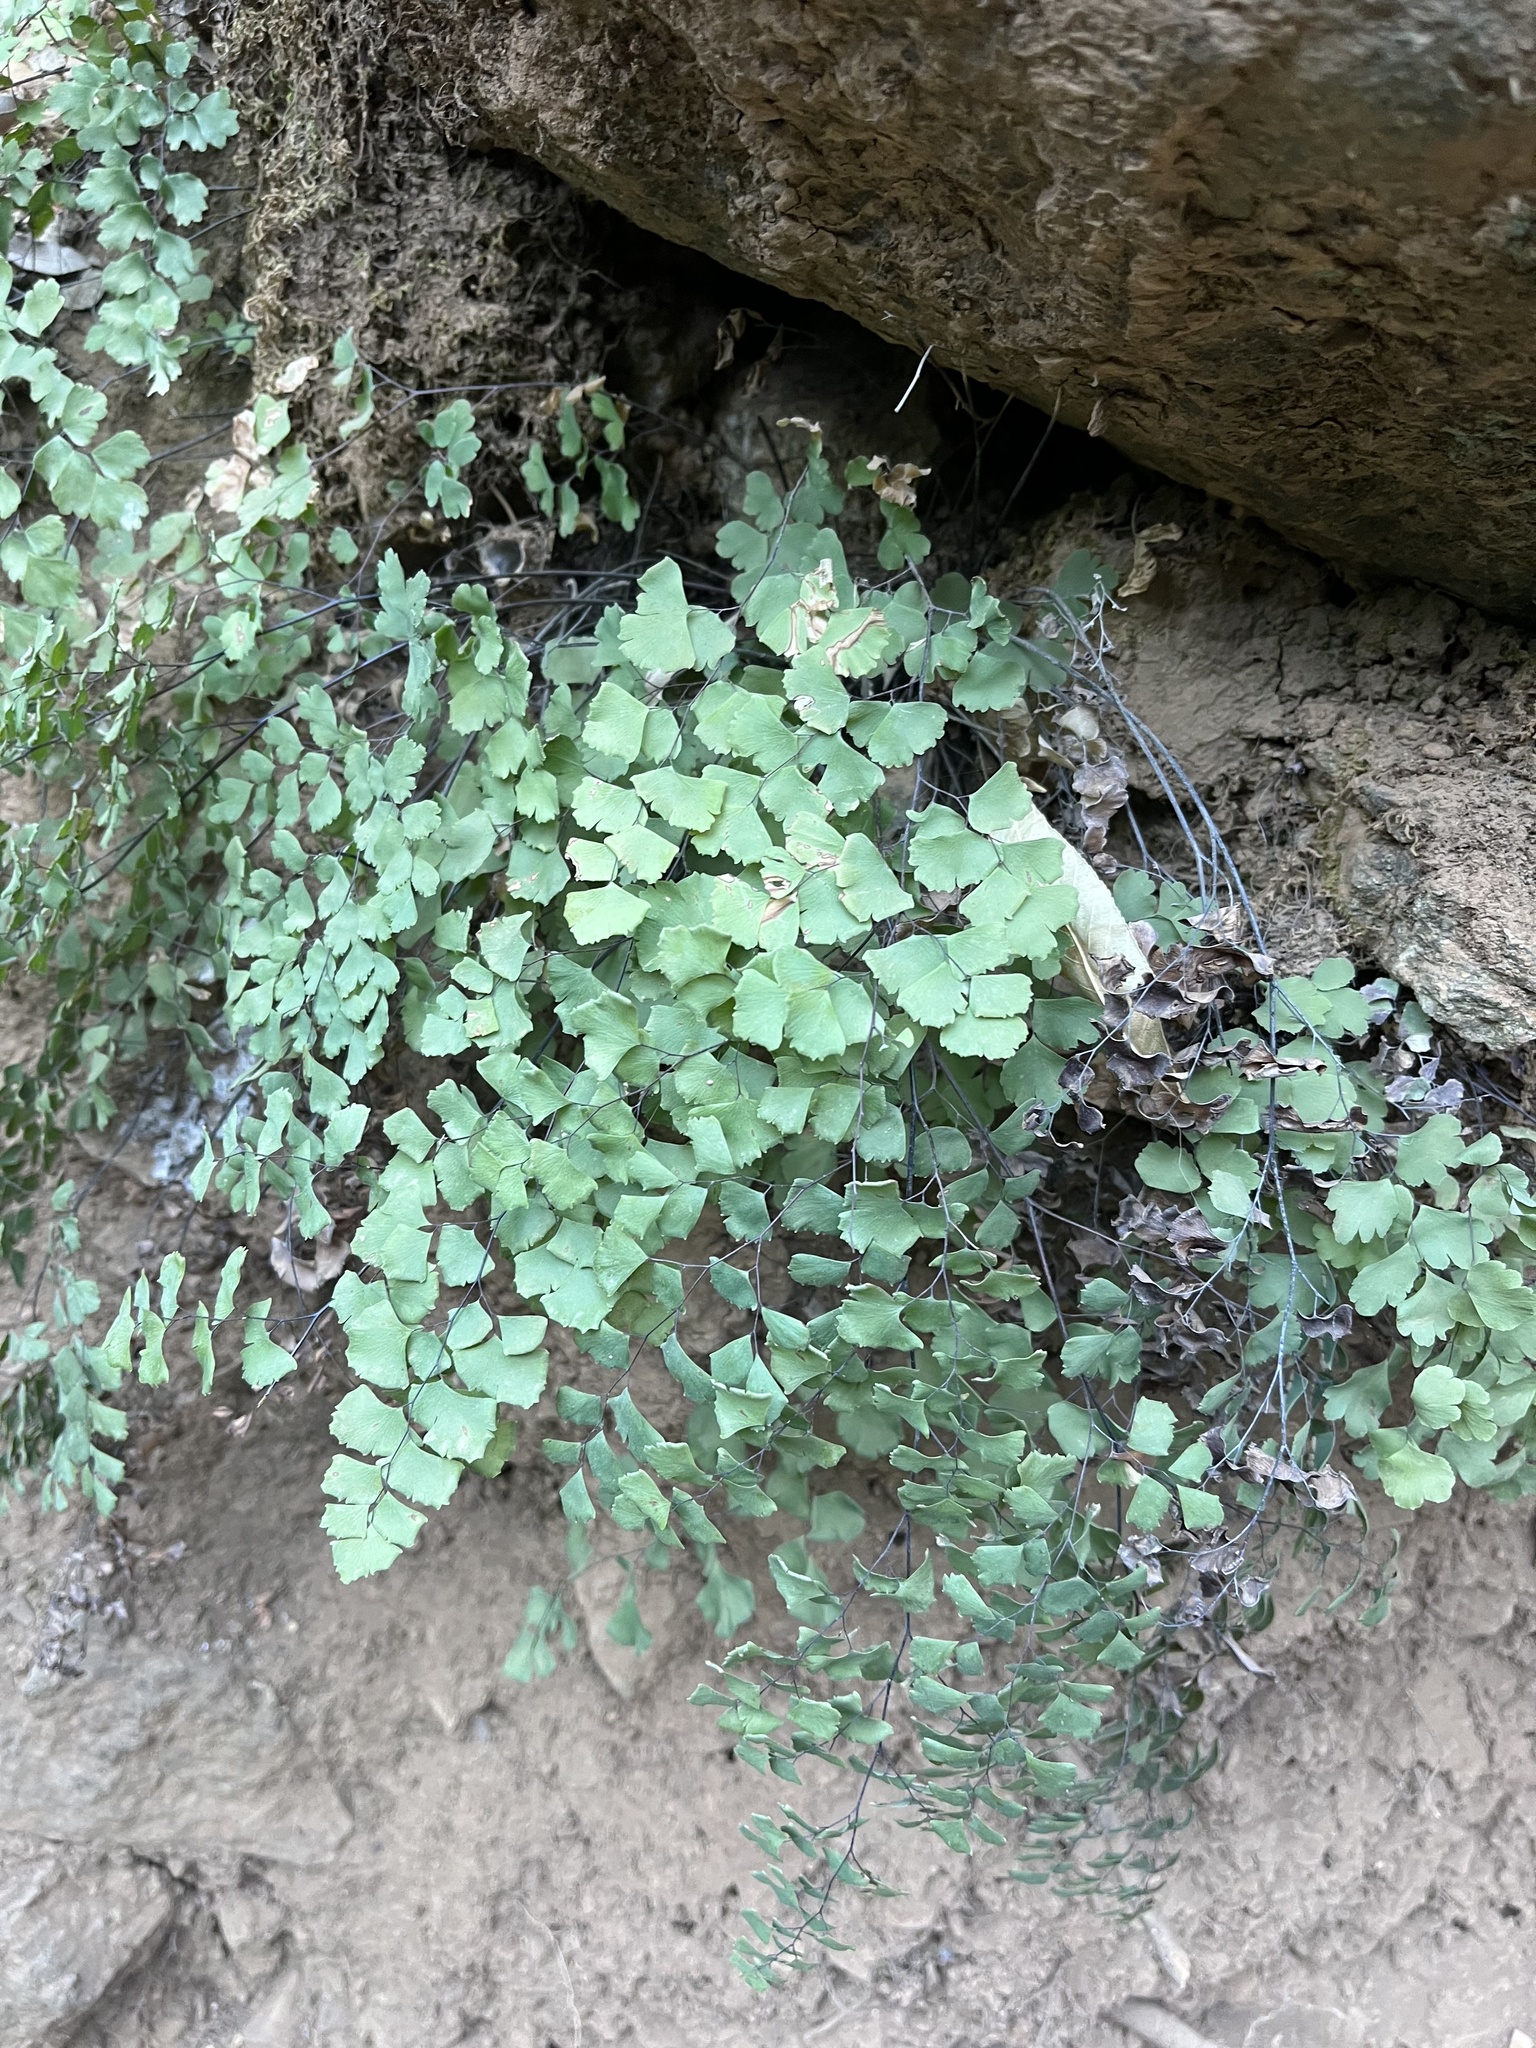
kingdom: Plantae
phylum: Tracheophyta
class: Polypodiopsida
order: Polypodiales
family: Pteridaceae
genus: Adiantum
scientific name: Adiantum shastense
